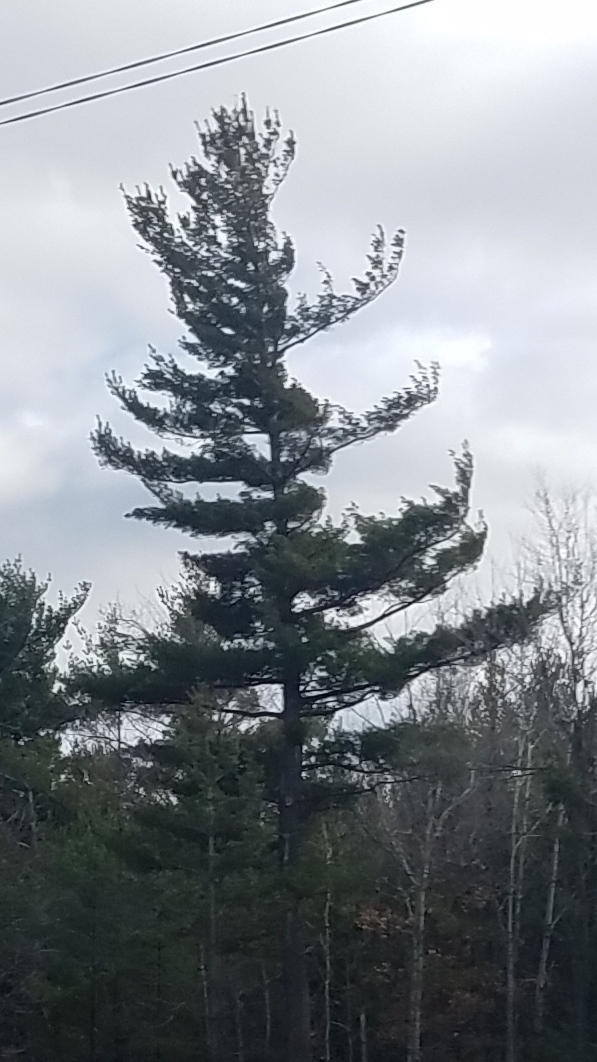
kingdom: Plantae
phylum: Tracheophyta
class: Pinopsida
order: Pinales
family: Pinaceae
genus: Pinus
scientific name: Pinus strobus
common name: Weymouth pine
